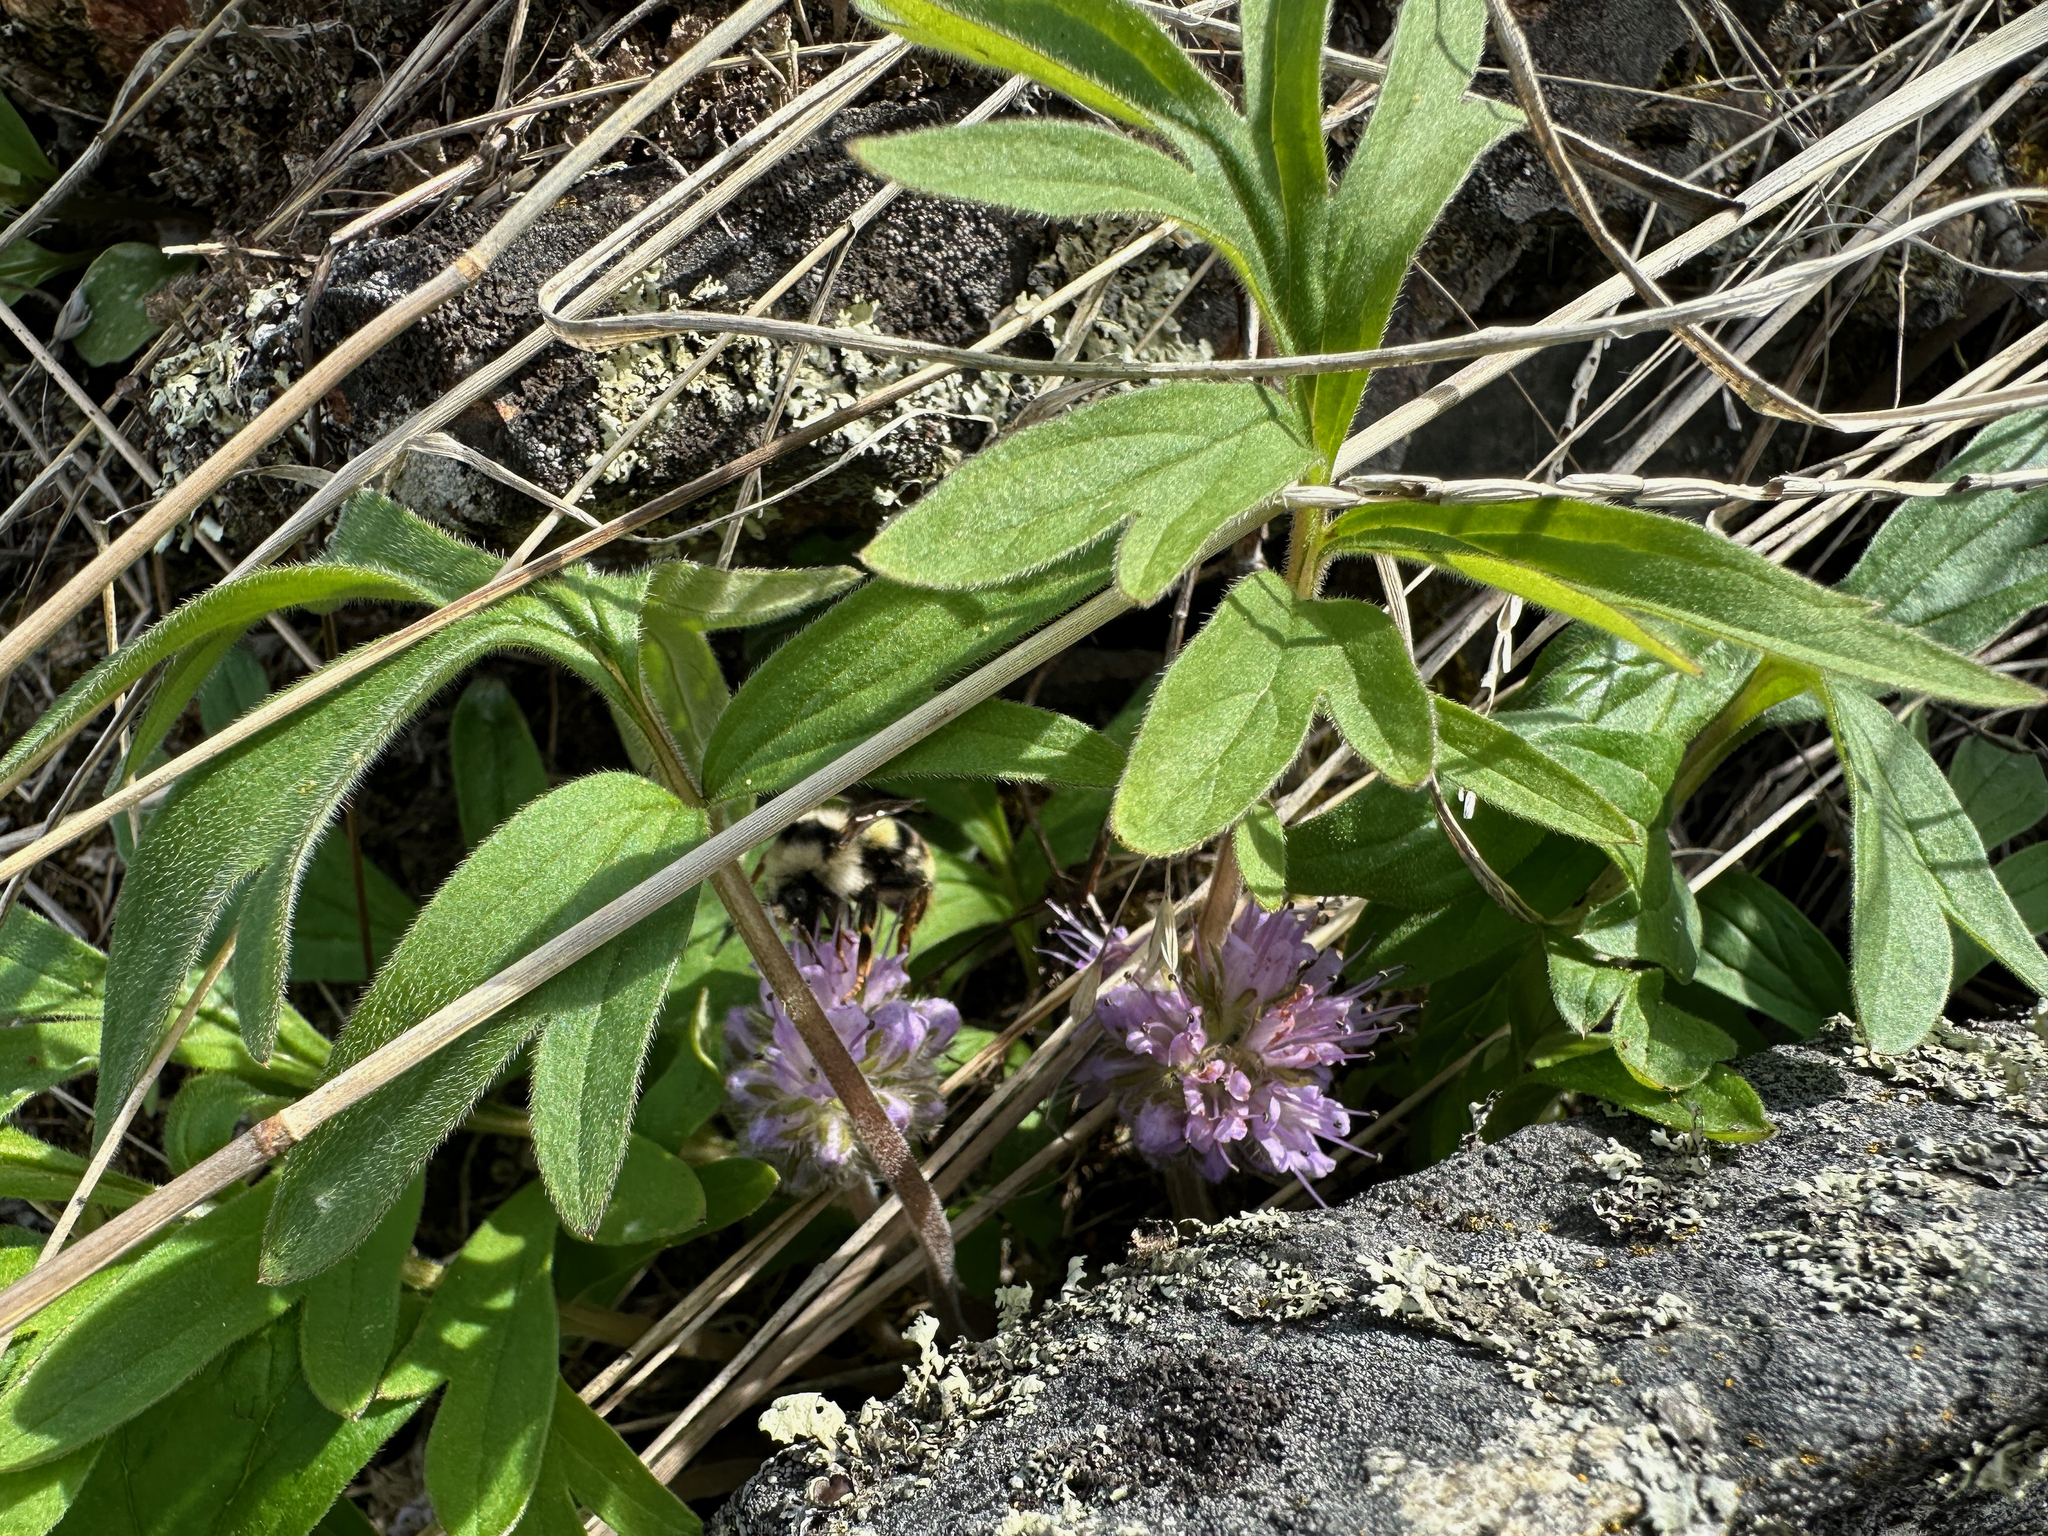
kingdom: Plantae
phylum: Tracheophyta
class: Magnoliopsida
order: Boraginales
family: Hydrophyllaceae
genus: Hydrophyllum
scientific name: Hydrophyllum capitatum
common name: Woollen-breeches
